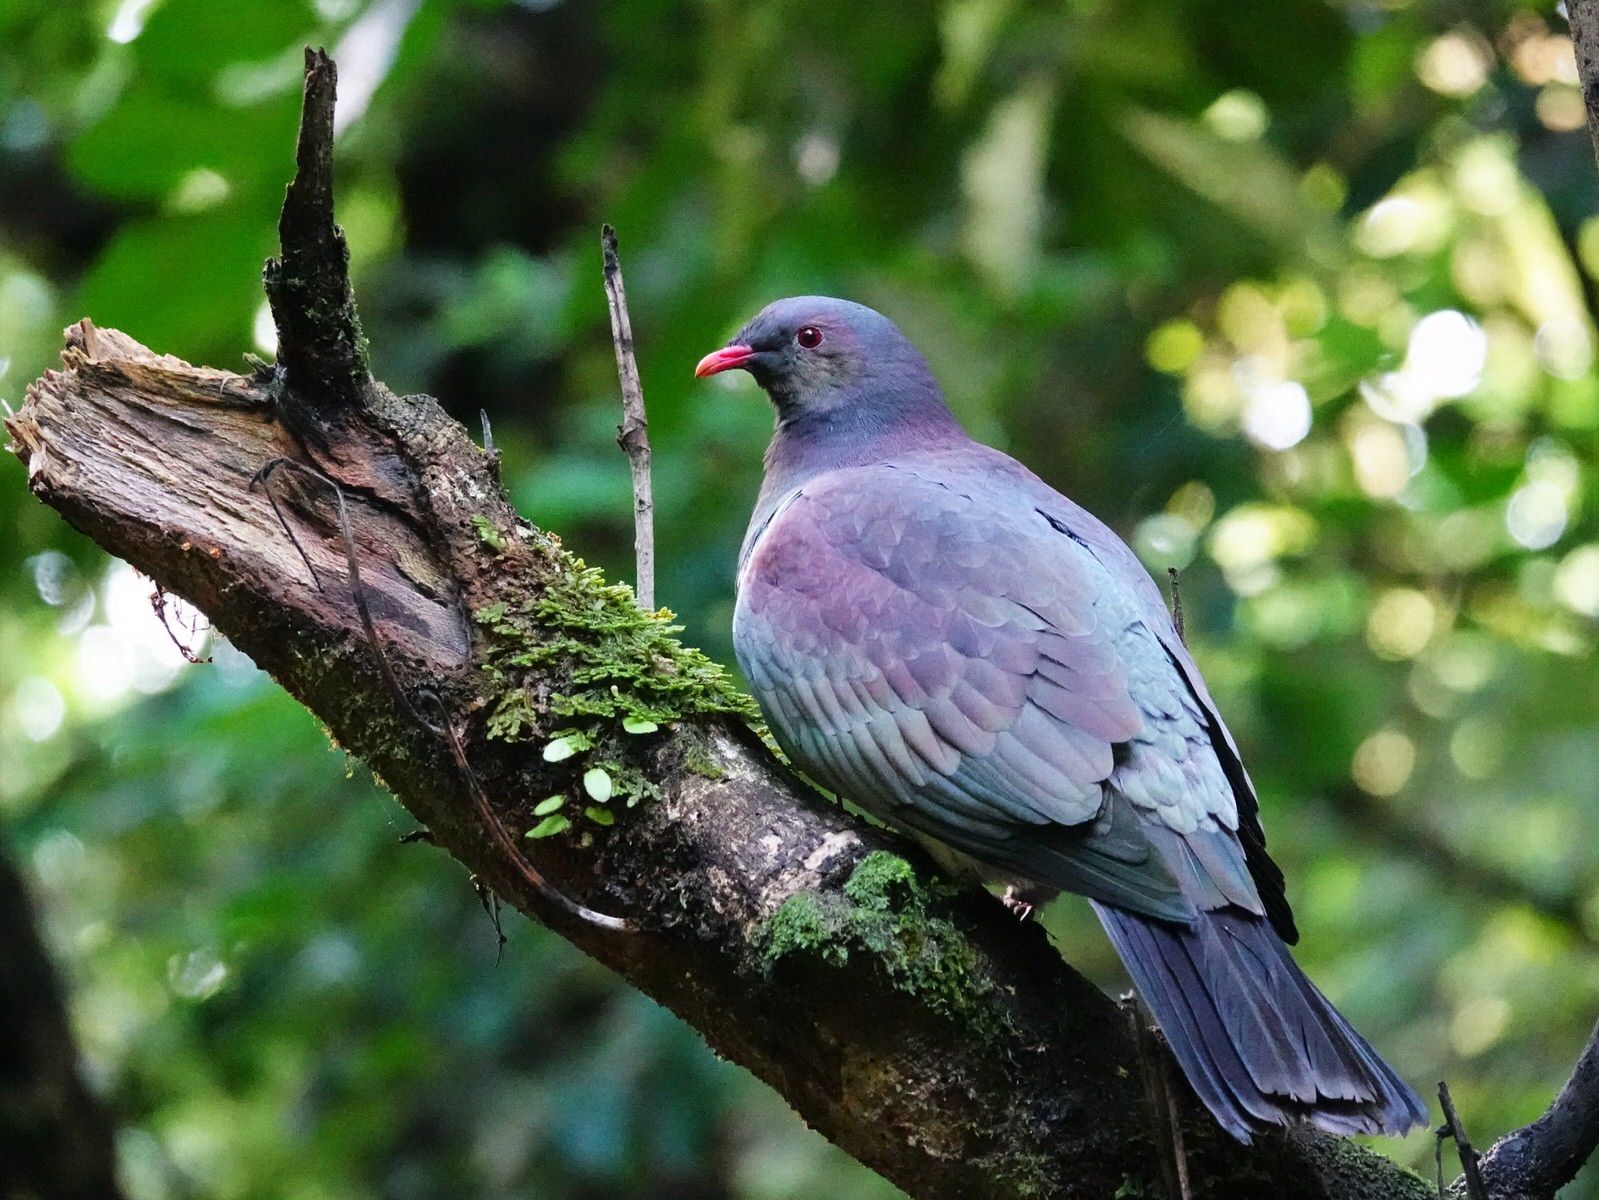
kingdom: Animalia
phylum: Chordata
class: Aves
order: Columbiformes
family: Columbidae
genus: Hemiphaga
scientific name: Hemiphaga novaeseelandiae
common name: New zealand pigeon
